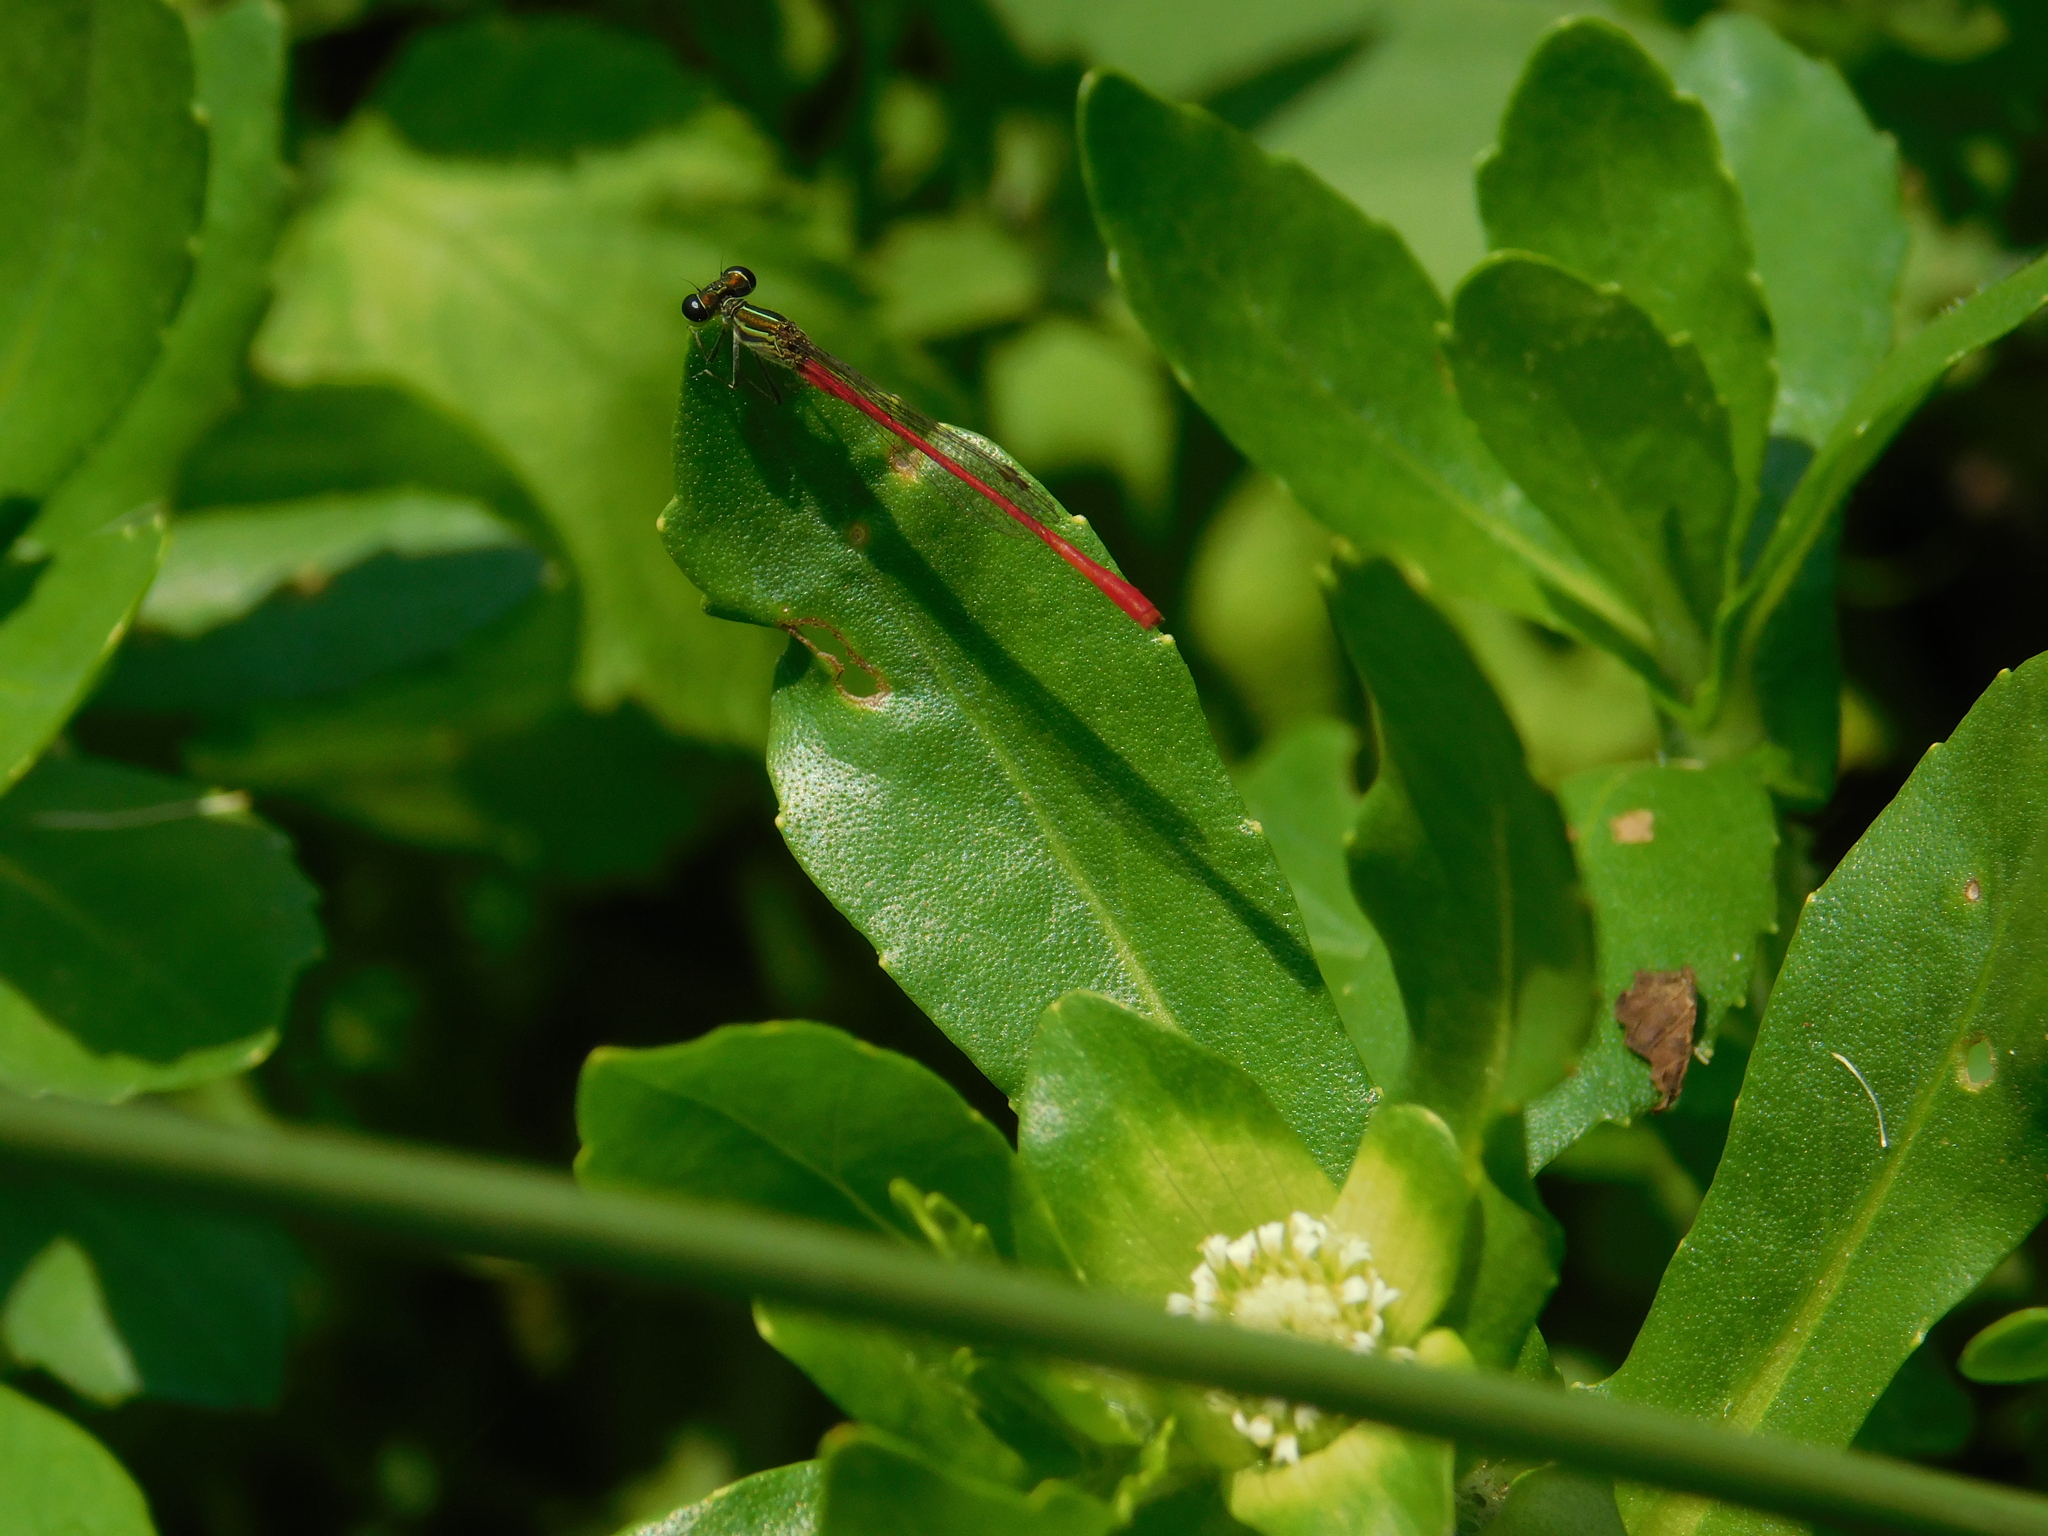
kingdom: Animalia
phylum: Arthropoda
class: Insecta
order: Odonata
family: Coenagrionidae
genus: Telebasis
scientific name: Telebasis willinki
